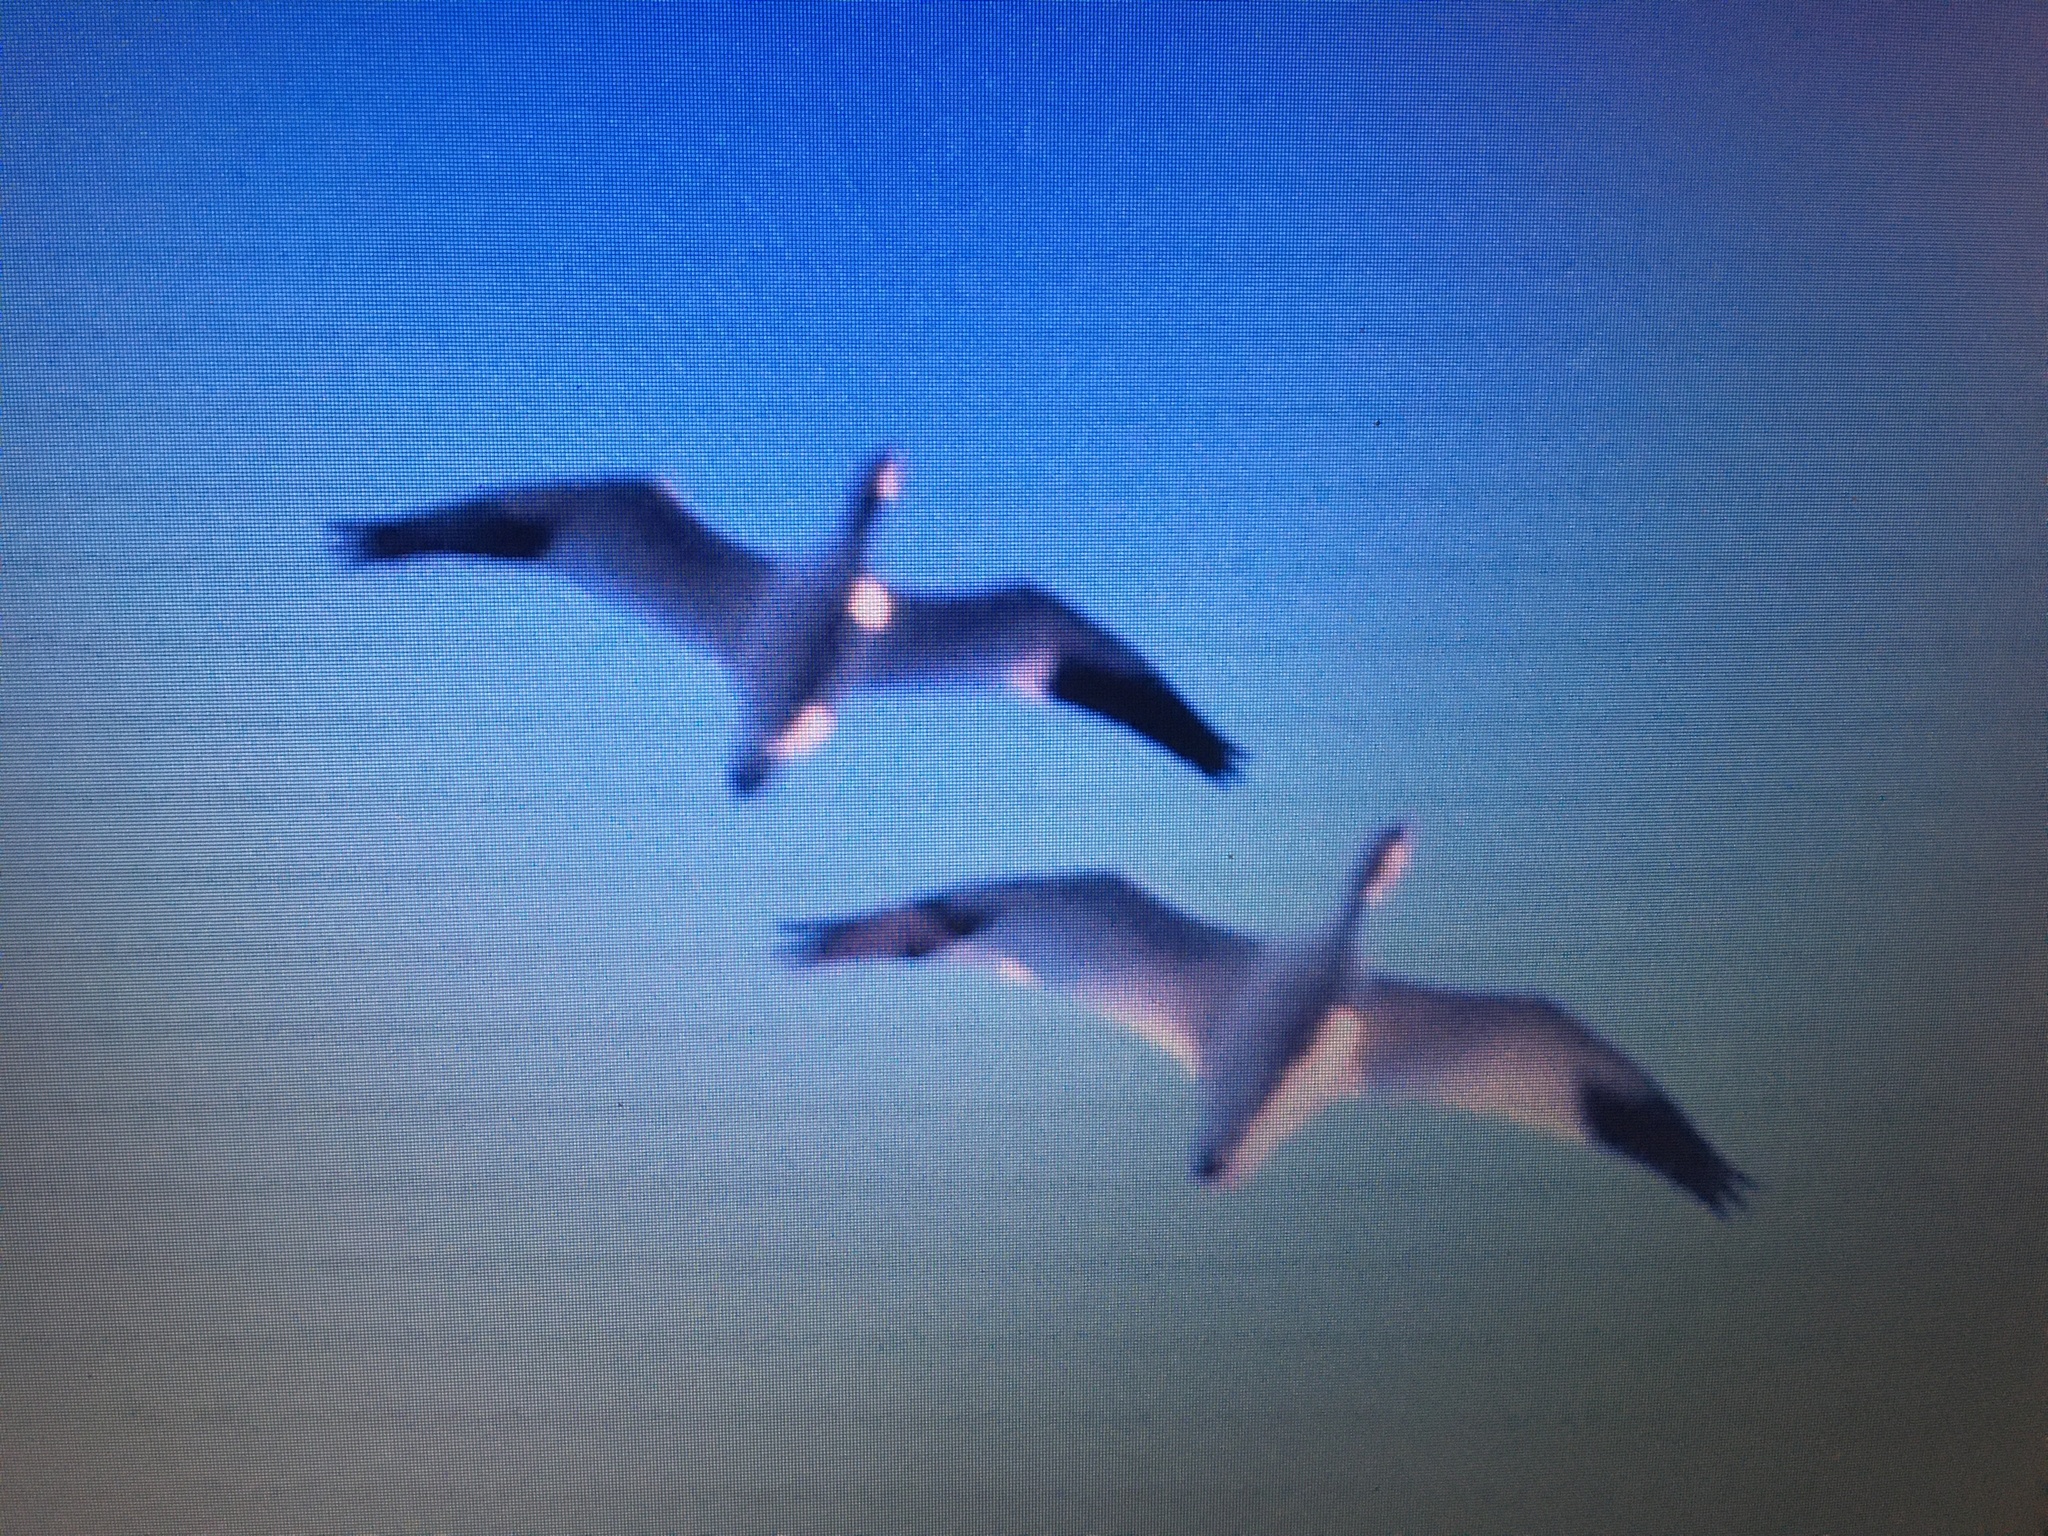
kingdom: Animalia
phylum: Chordata
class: Aves
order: Anseriformes
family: Anatidae
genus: Anser
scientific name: Anser rossii
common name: Ross's goose
